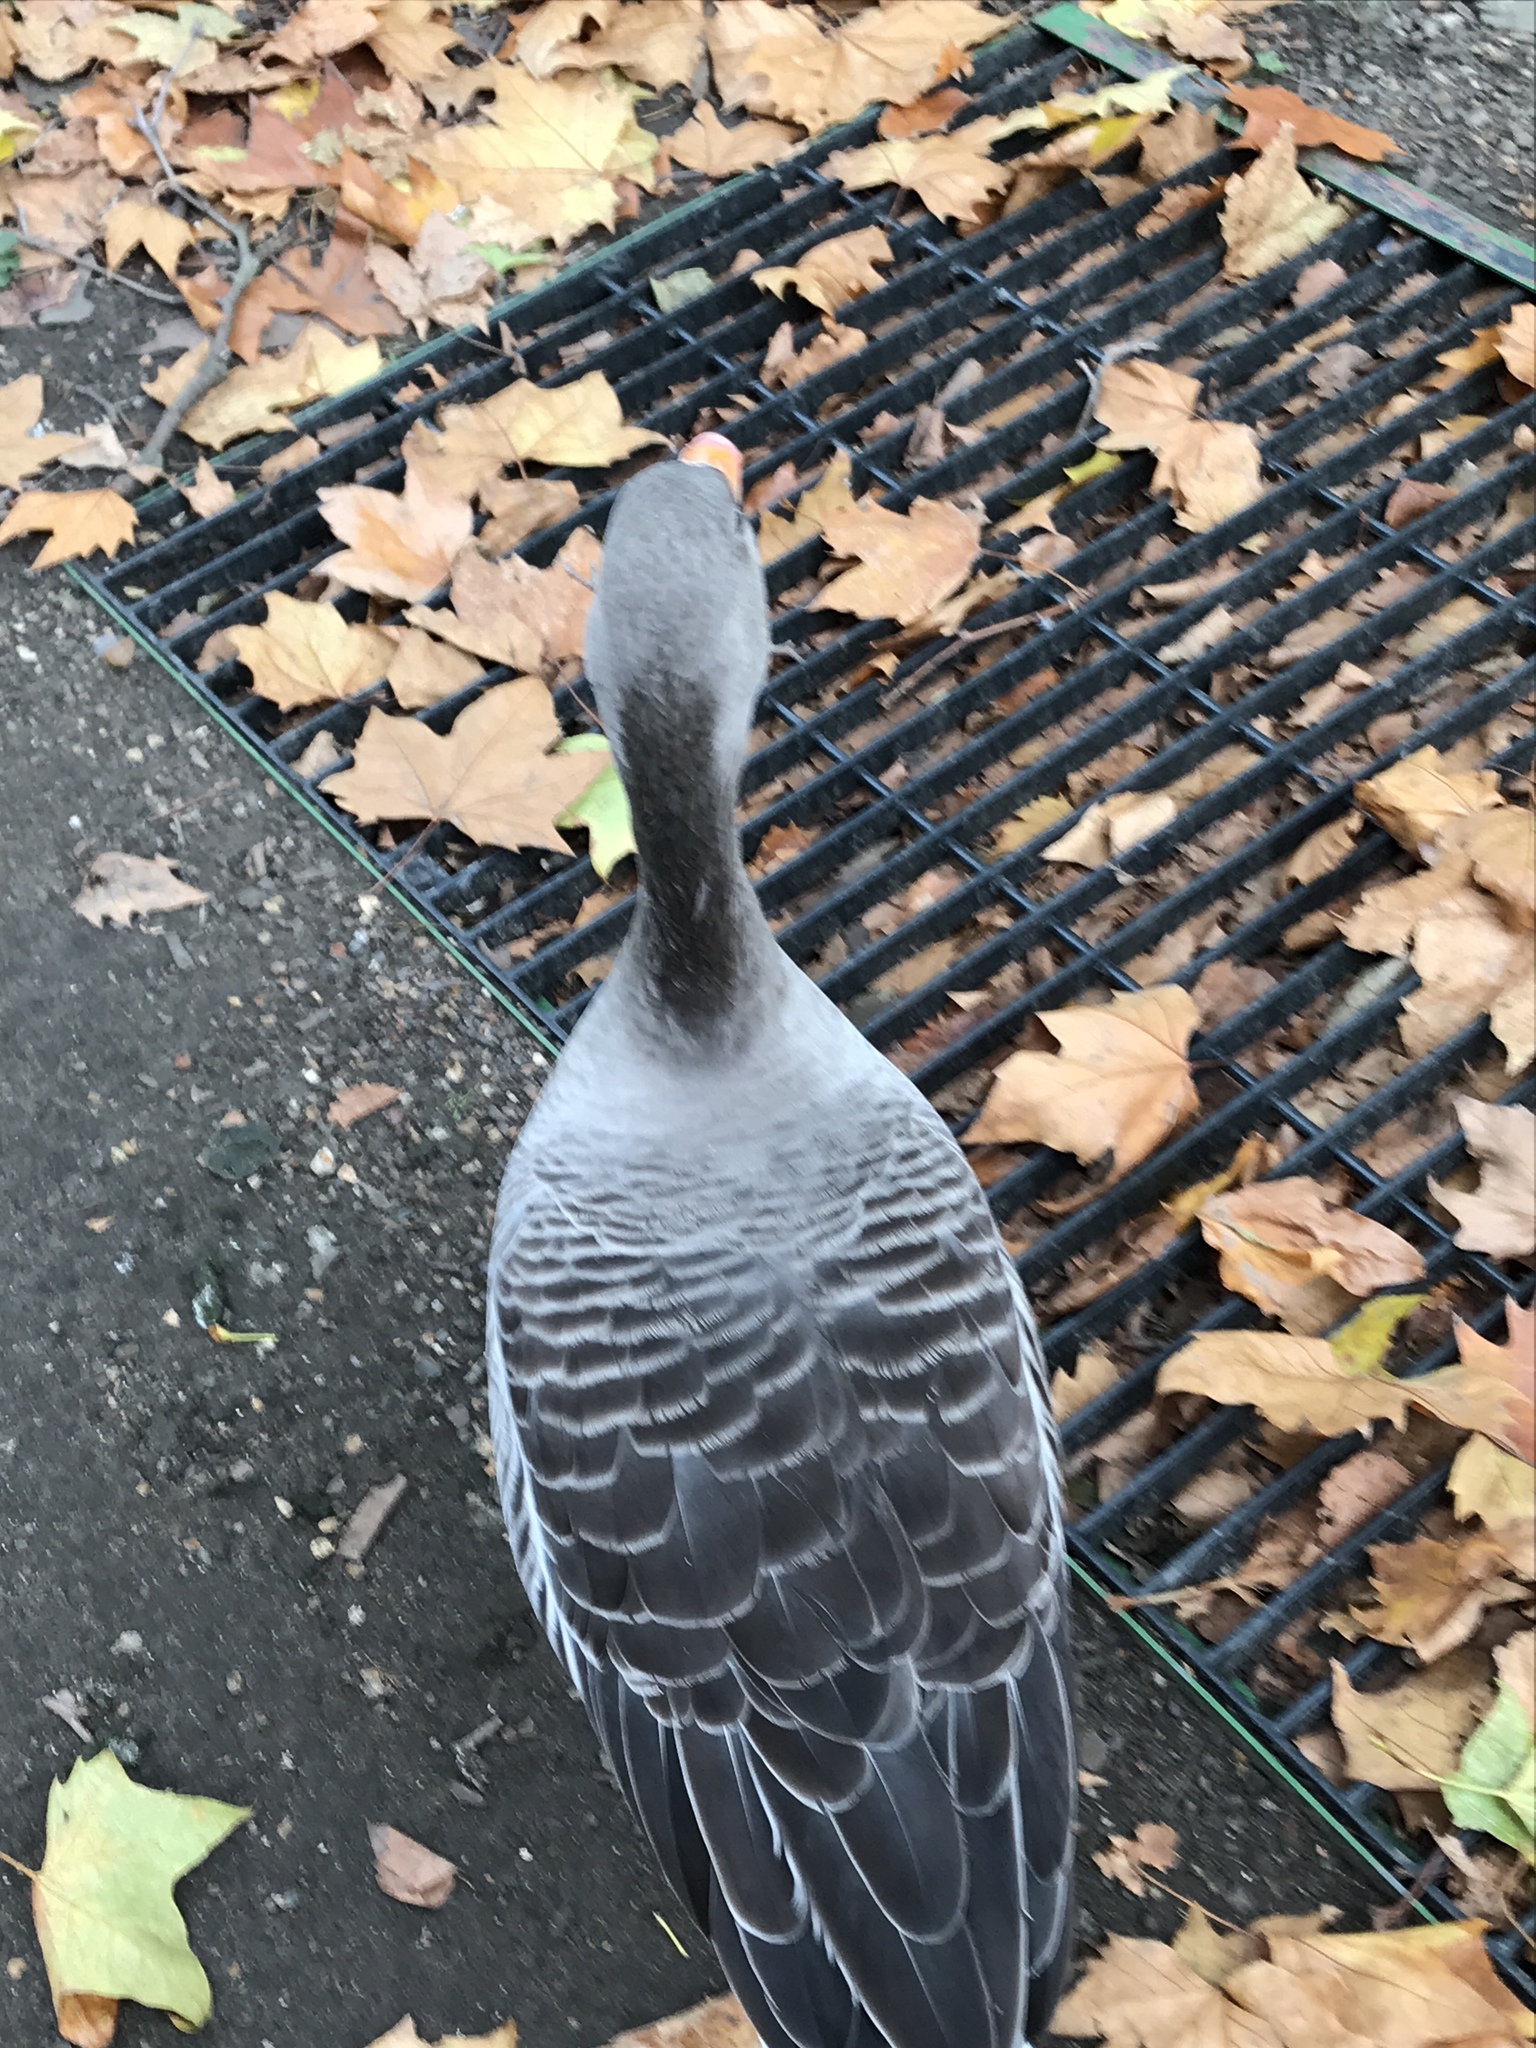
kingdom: Animalia
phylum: Chordata
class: Aves
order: Anseriformes
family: Anatidae
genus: Anser
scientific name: Anser anser
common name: Greylag goose
